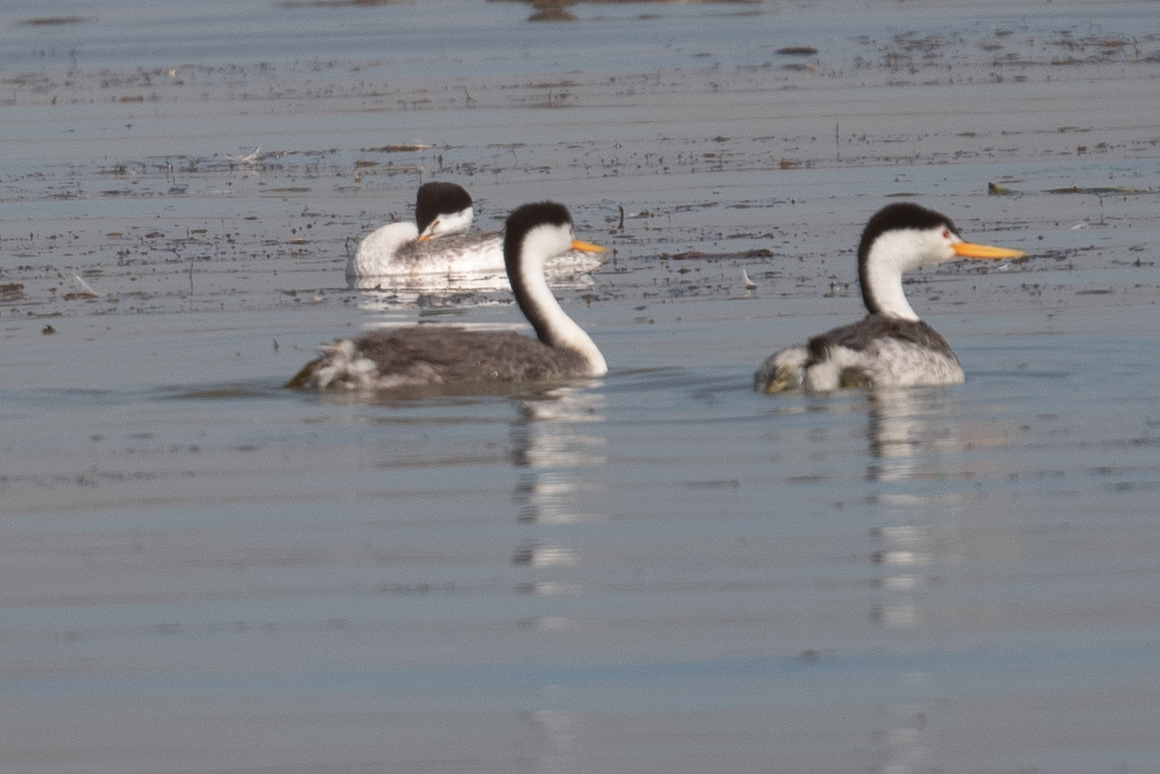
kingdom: Animalia
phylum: Chordata
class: Aves
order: Podicipediformes
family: Podicipedidae
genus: Aechmophorus
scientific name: Aechmophorus clarkii
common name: Clark's grebe
